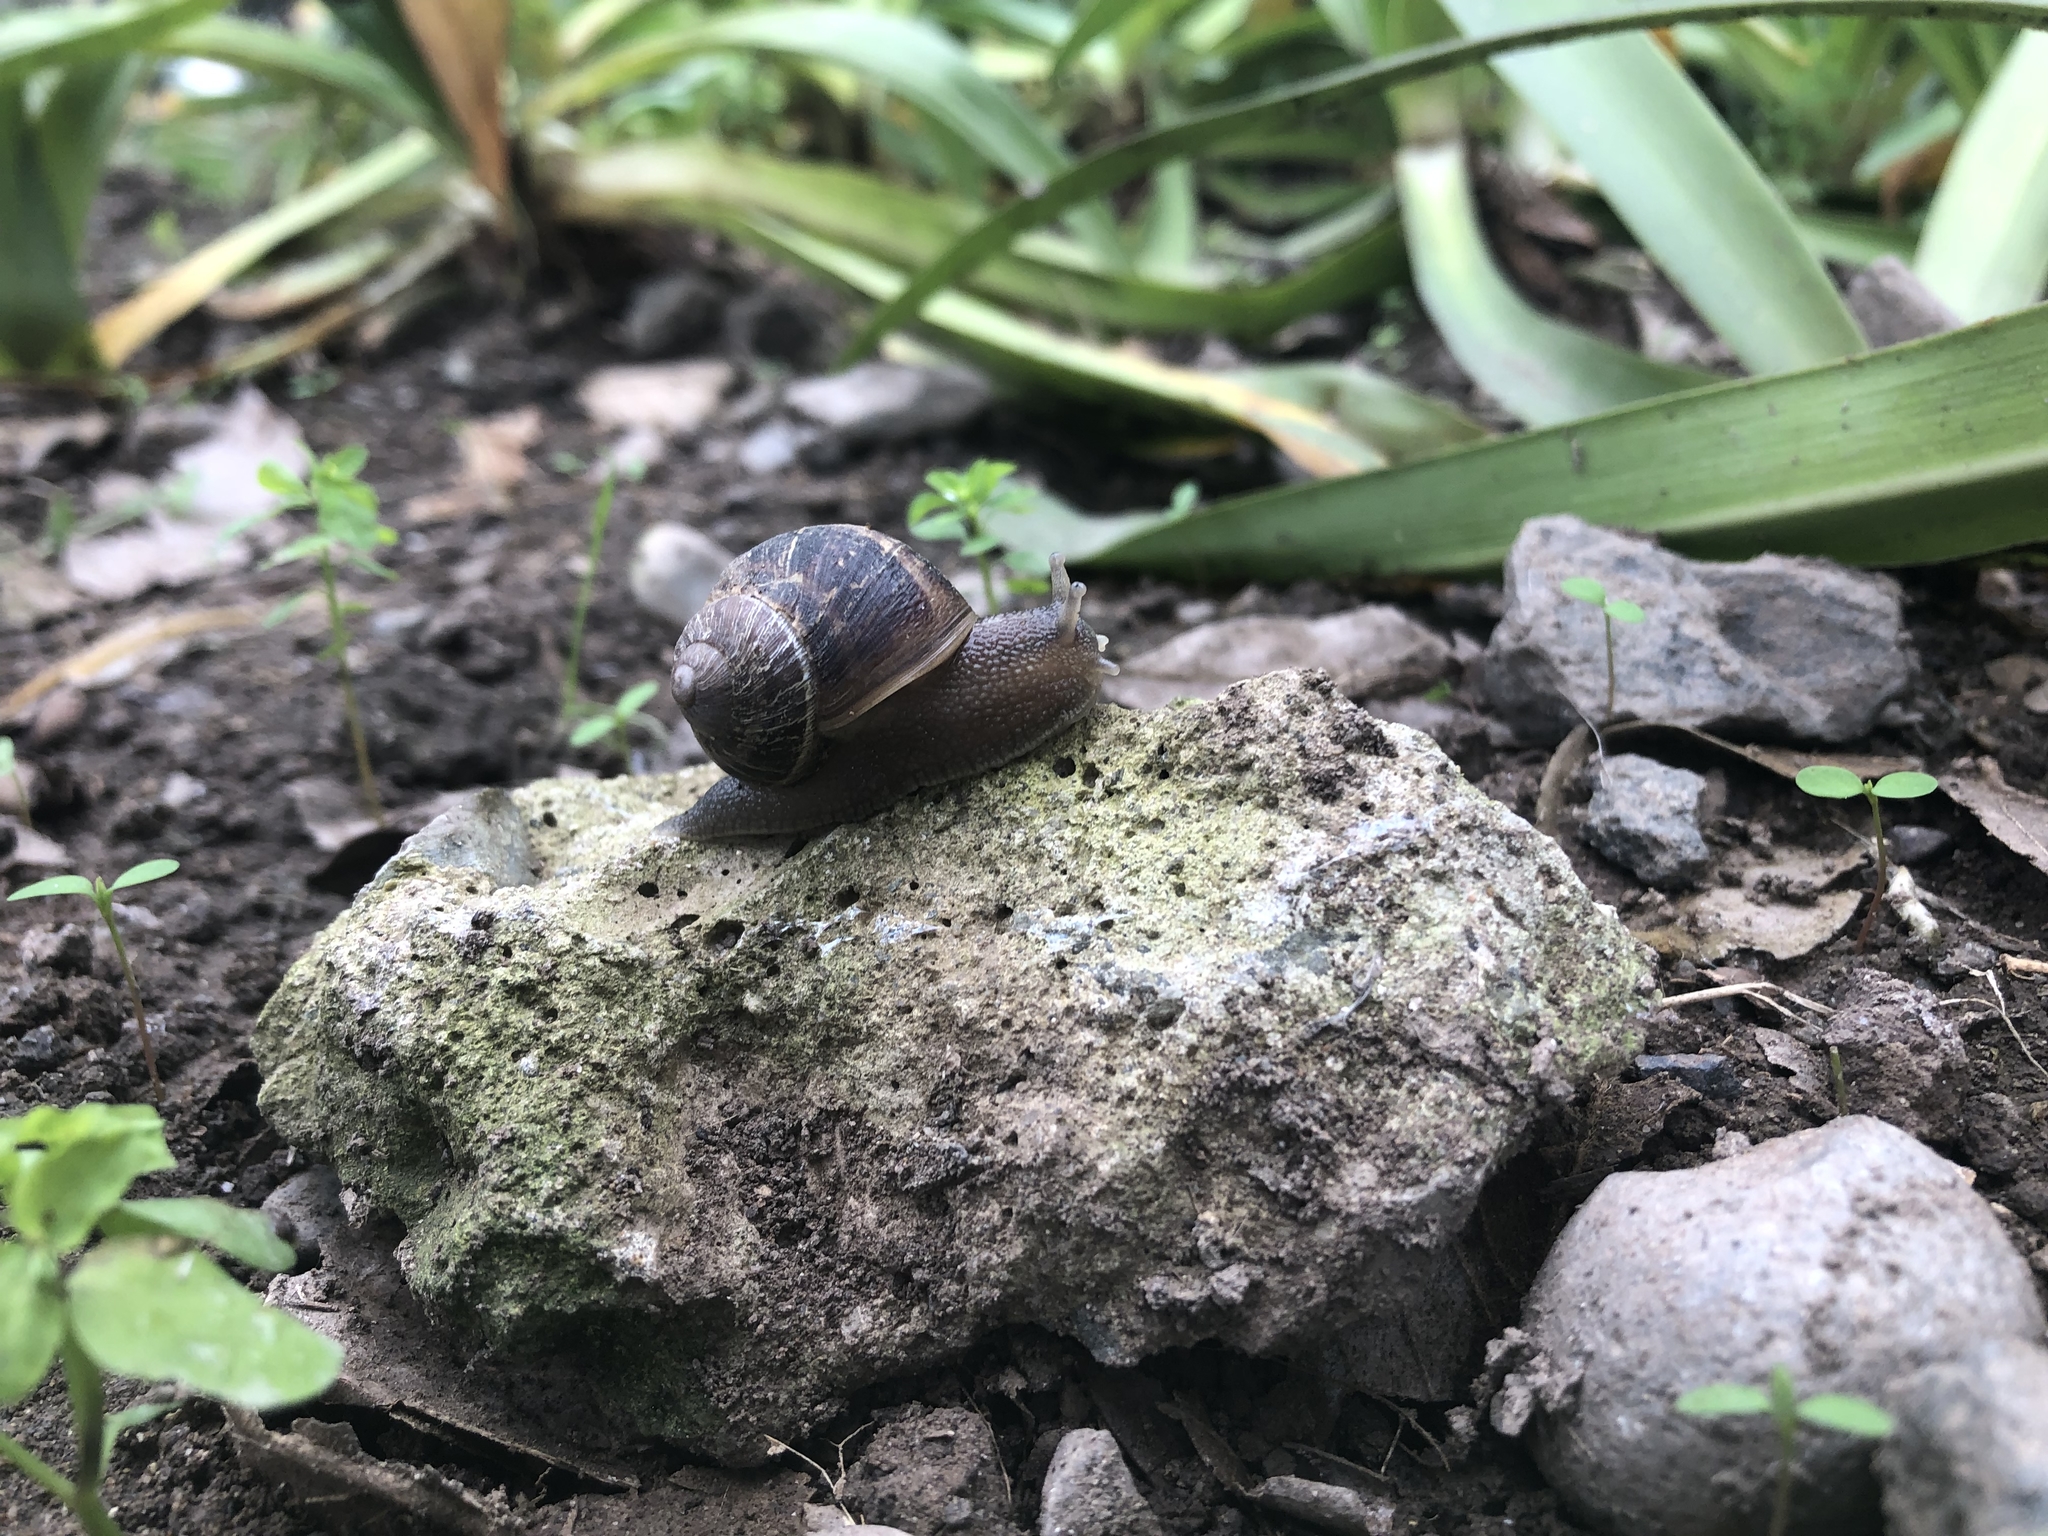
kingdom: Animalia
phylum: Mollusca
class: Gastropoda
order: Stylommatophora
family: Helicidae
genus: Cornu
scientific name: Cornu aspersum
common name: Brown garden snail
